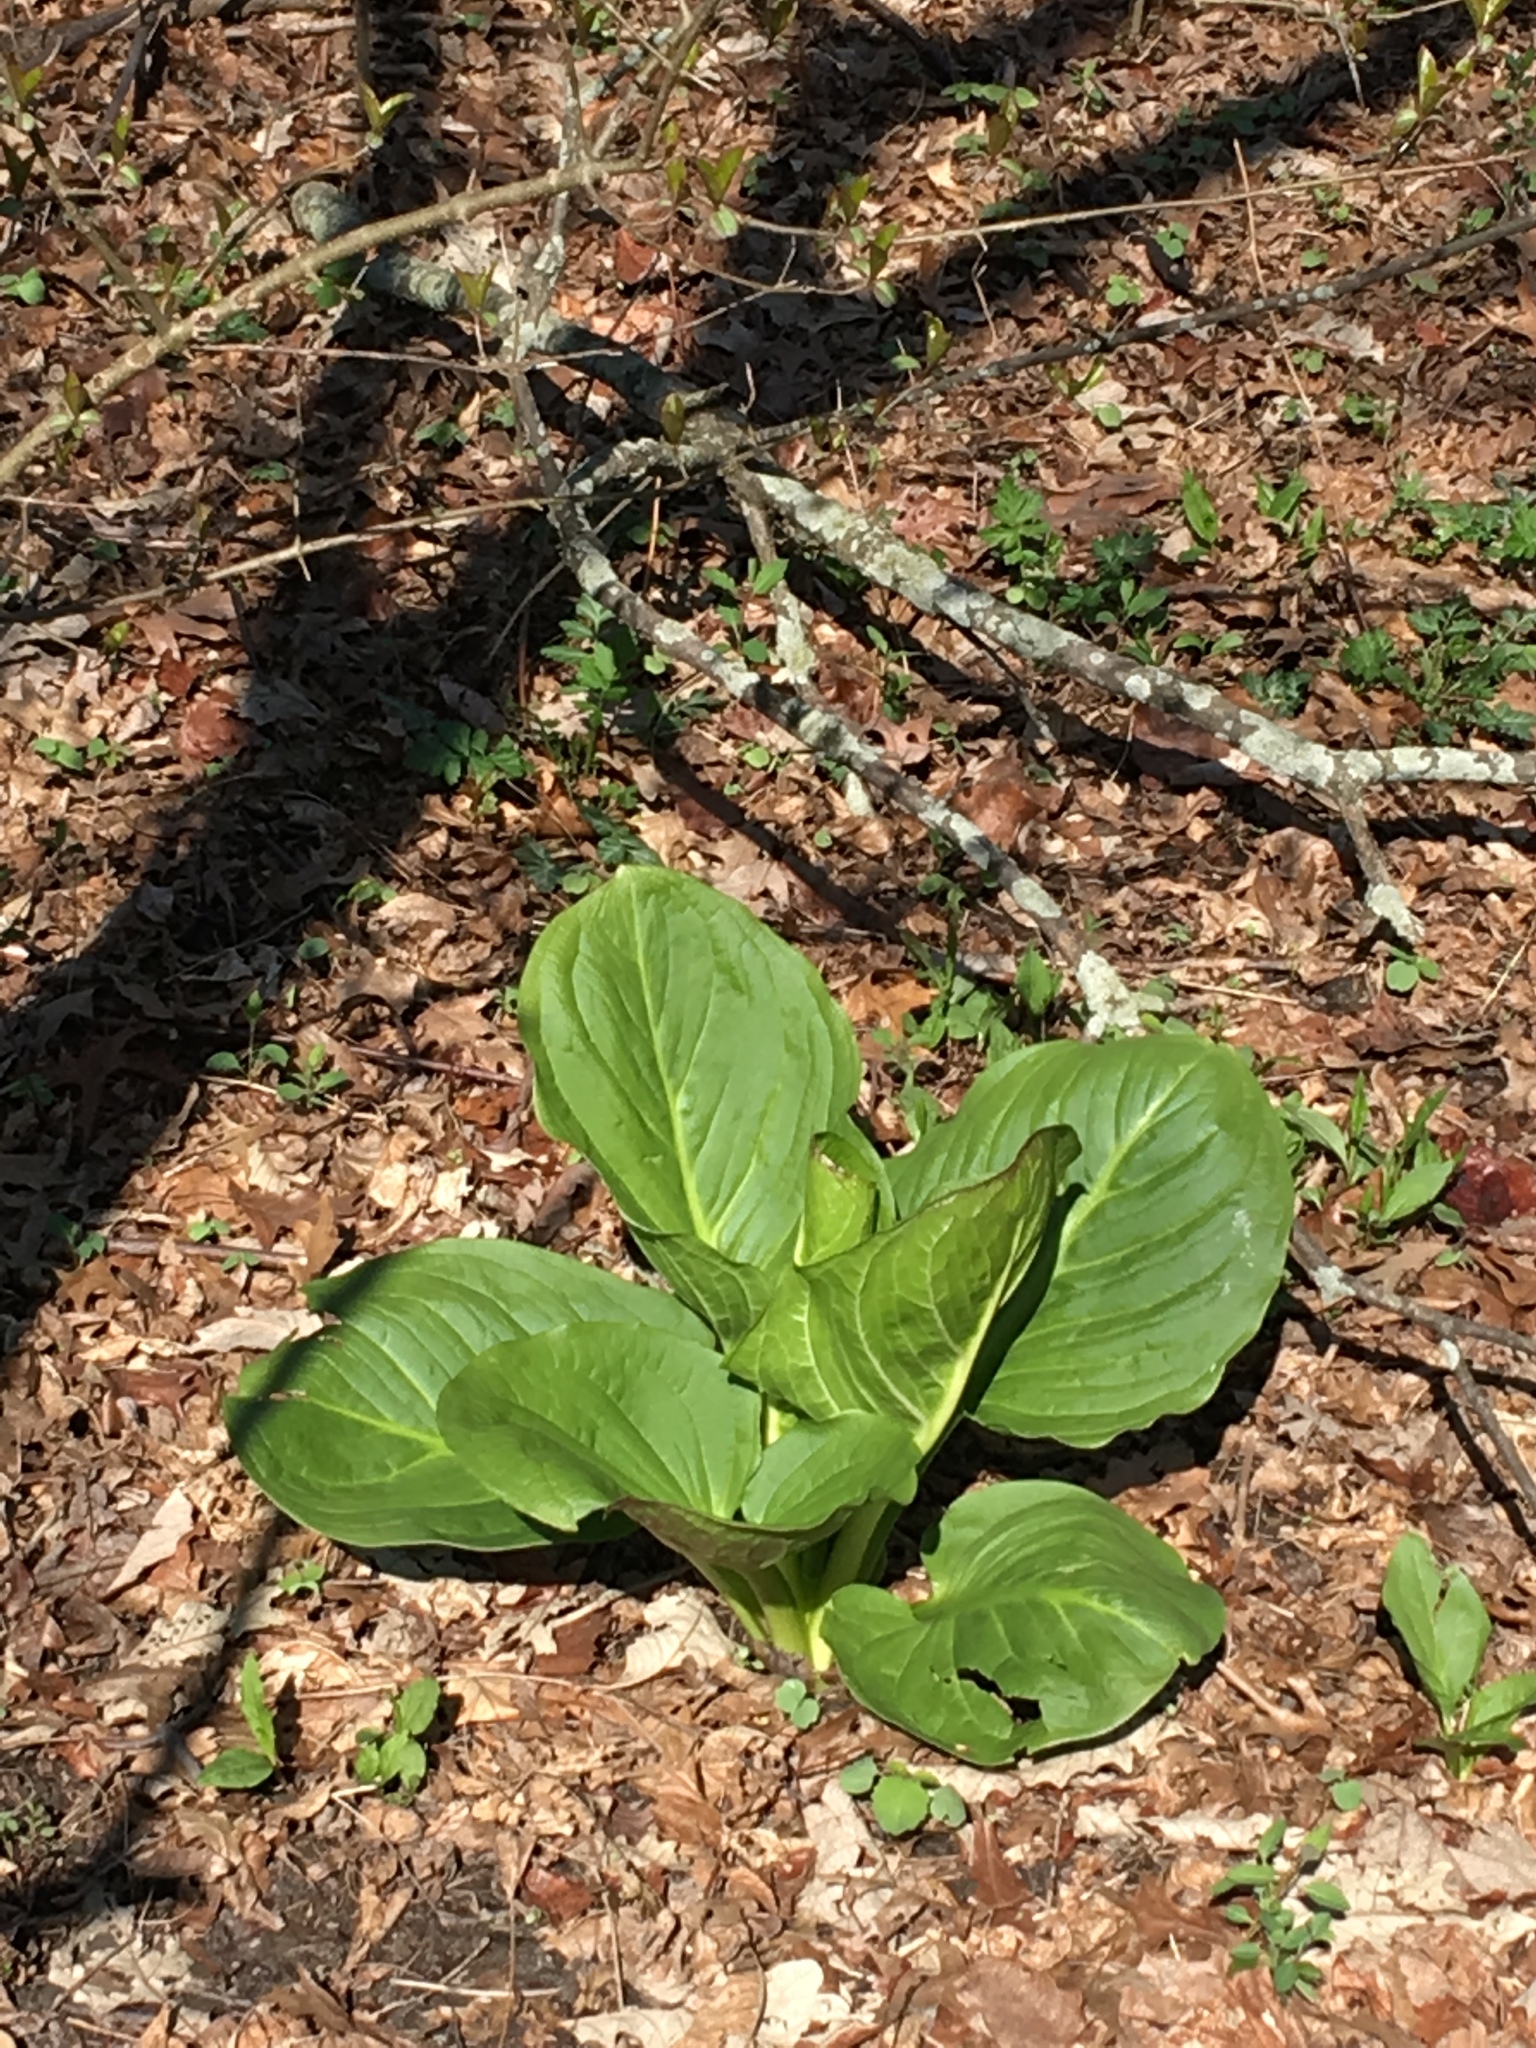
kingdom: Plantae
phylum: Tracheophyta
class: Liliopsida
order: Alismatales
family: Araceae
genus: Symplocarpus
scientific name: Symplocarpus foetidus
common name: Eastern skunk cabbage
